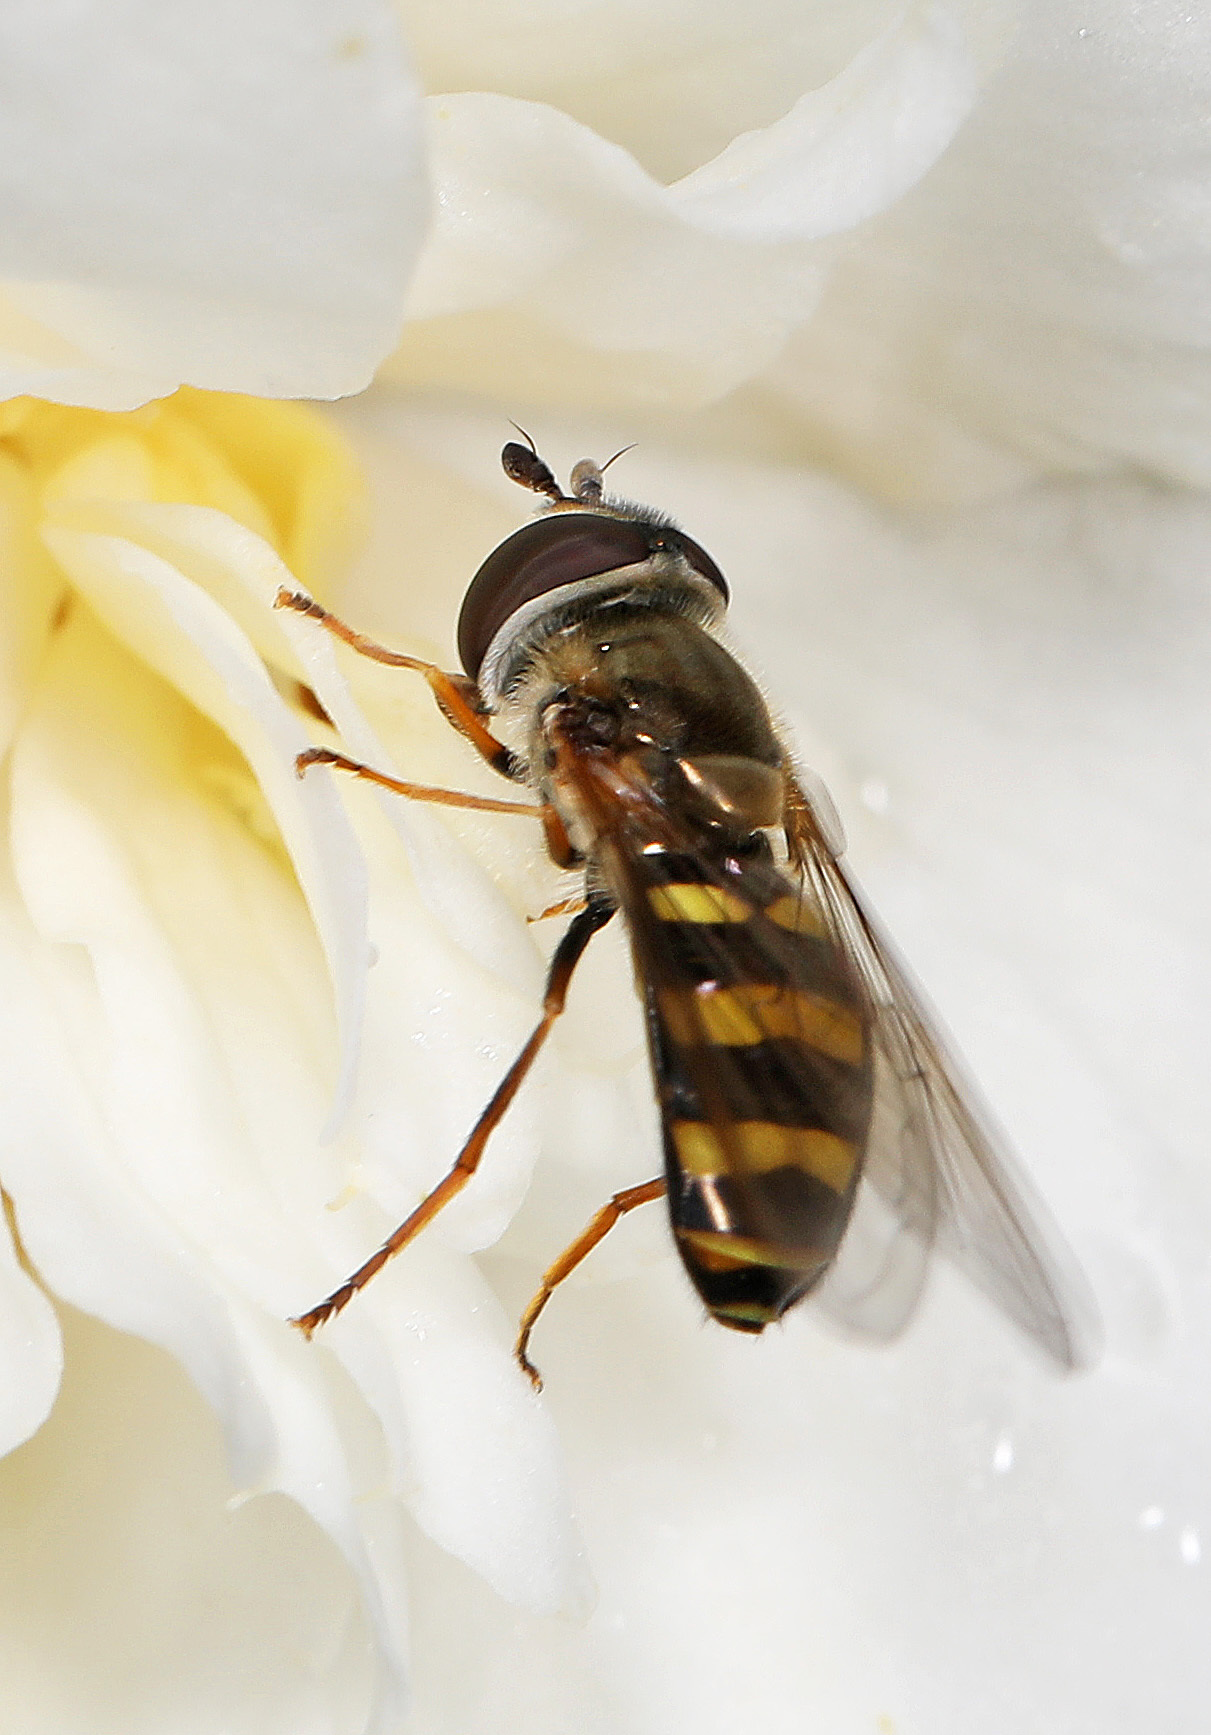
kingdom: Animalia
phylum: Arthropoda
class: Insecta
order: Diptera
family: Syrphidae
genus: Eupeodes
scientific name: Eupeodes
